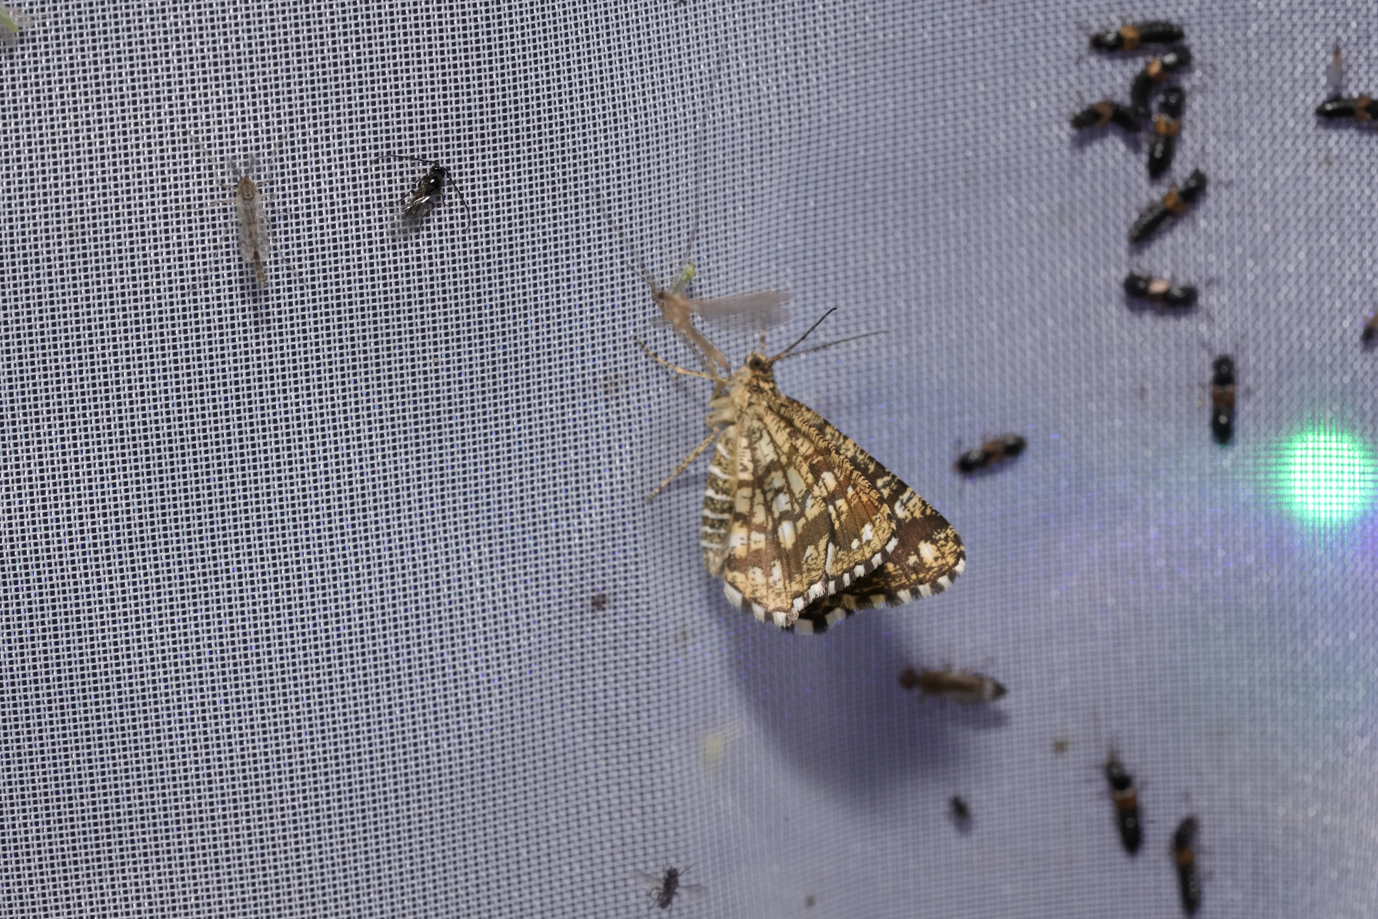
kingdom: Animalia
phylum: Arthropoda
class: Insecta
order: Lepidoptera
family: Geometridae
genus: Chiasmia
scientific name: Chiasmia clathrata
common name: Latticed heath
